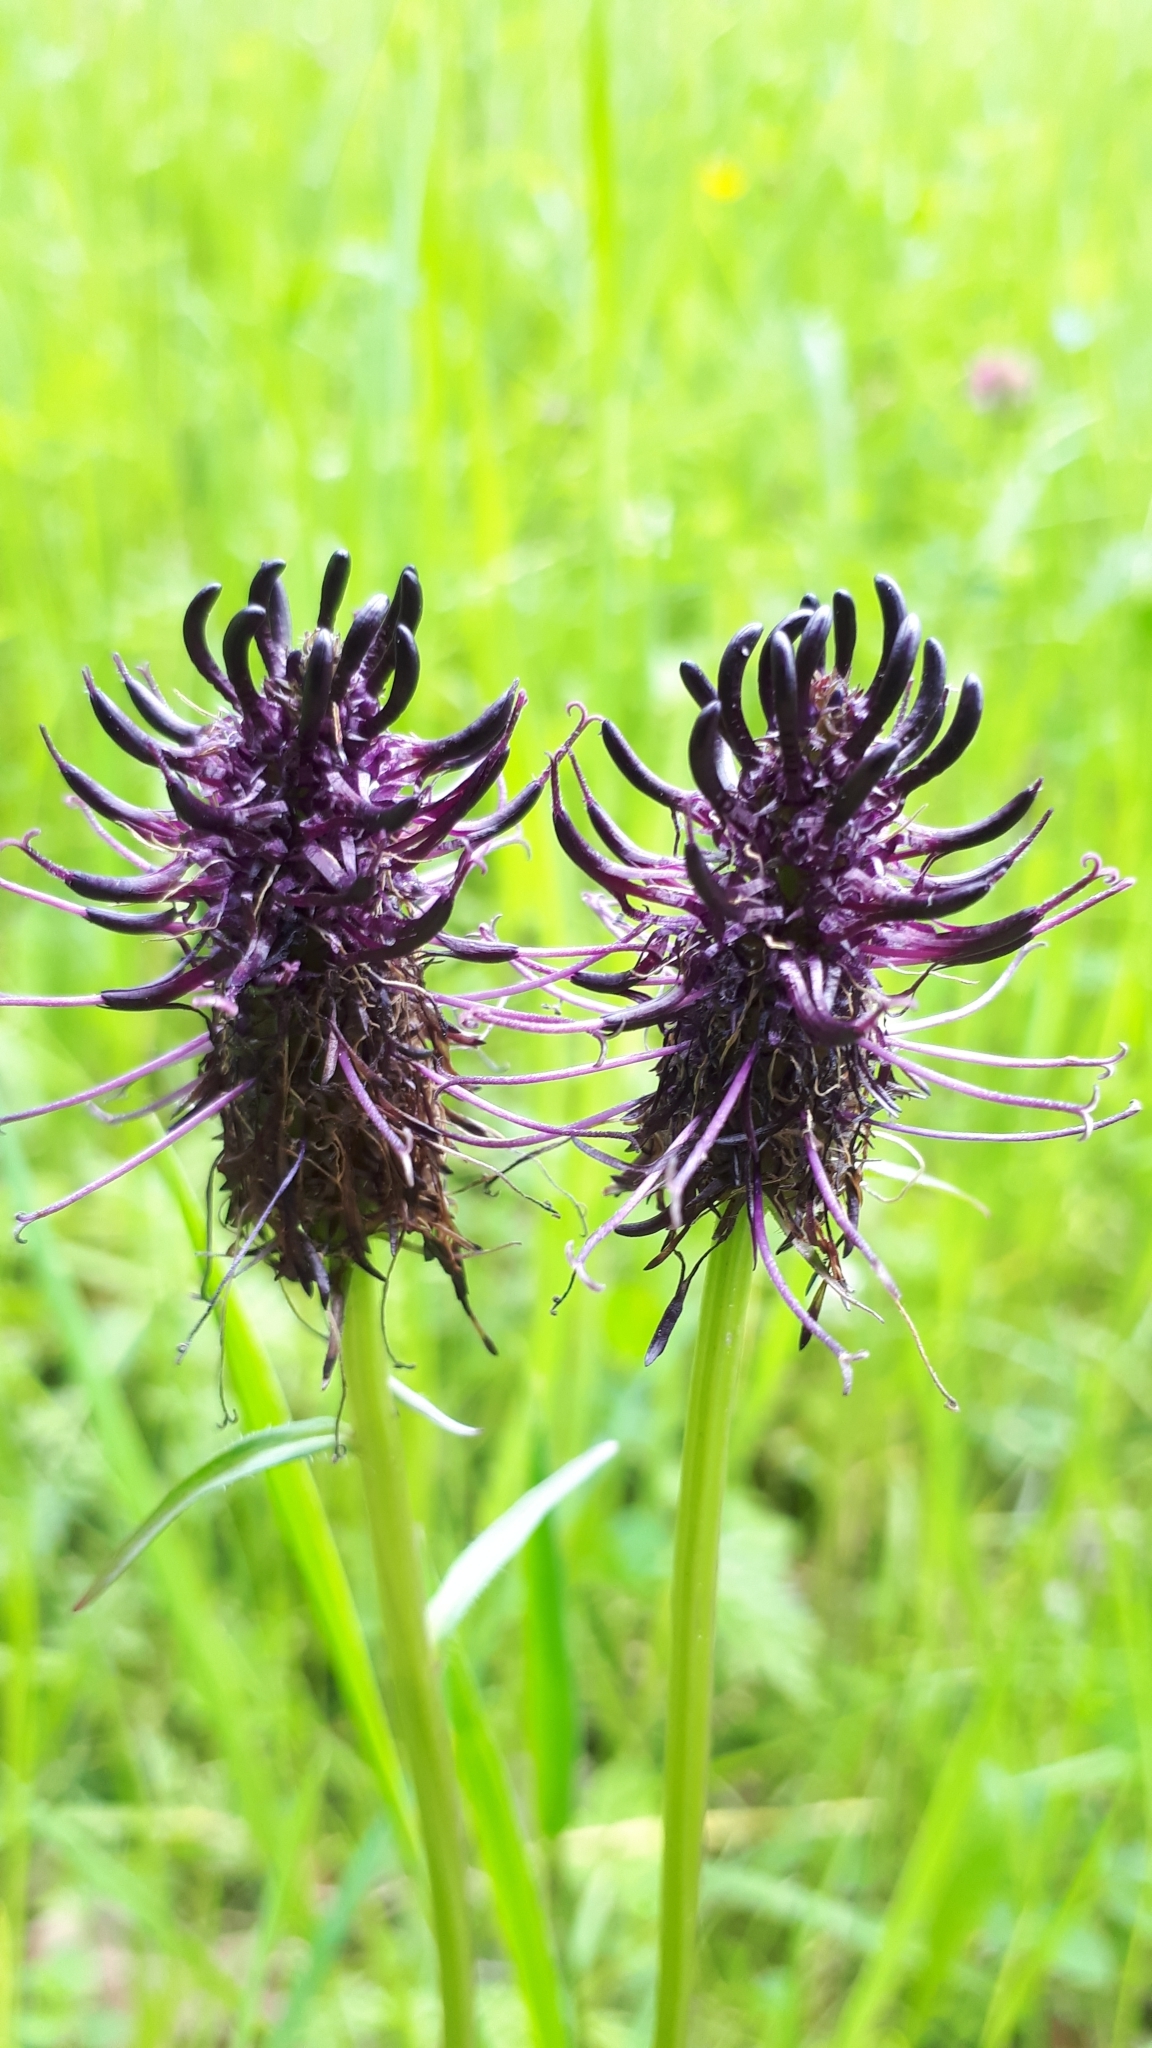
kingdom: Plantae
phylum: Tracheophyta
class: Magnoliopsida
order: Asterales
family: Campanulaceae
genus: Phyteuma
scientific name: Phyteuma nigrum
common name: Black rampion
